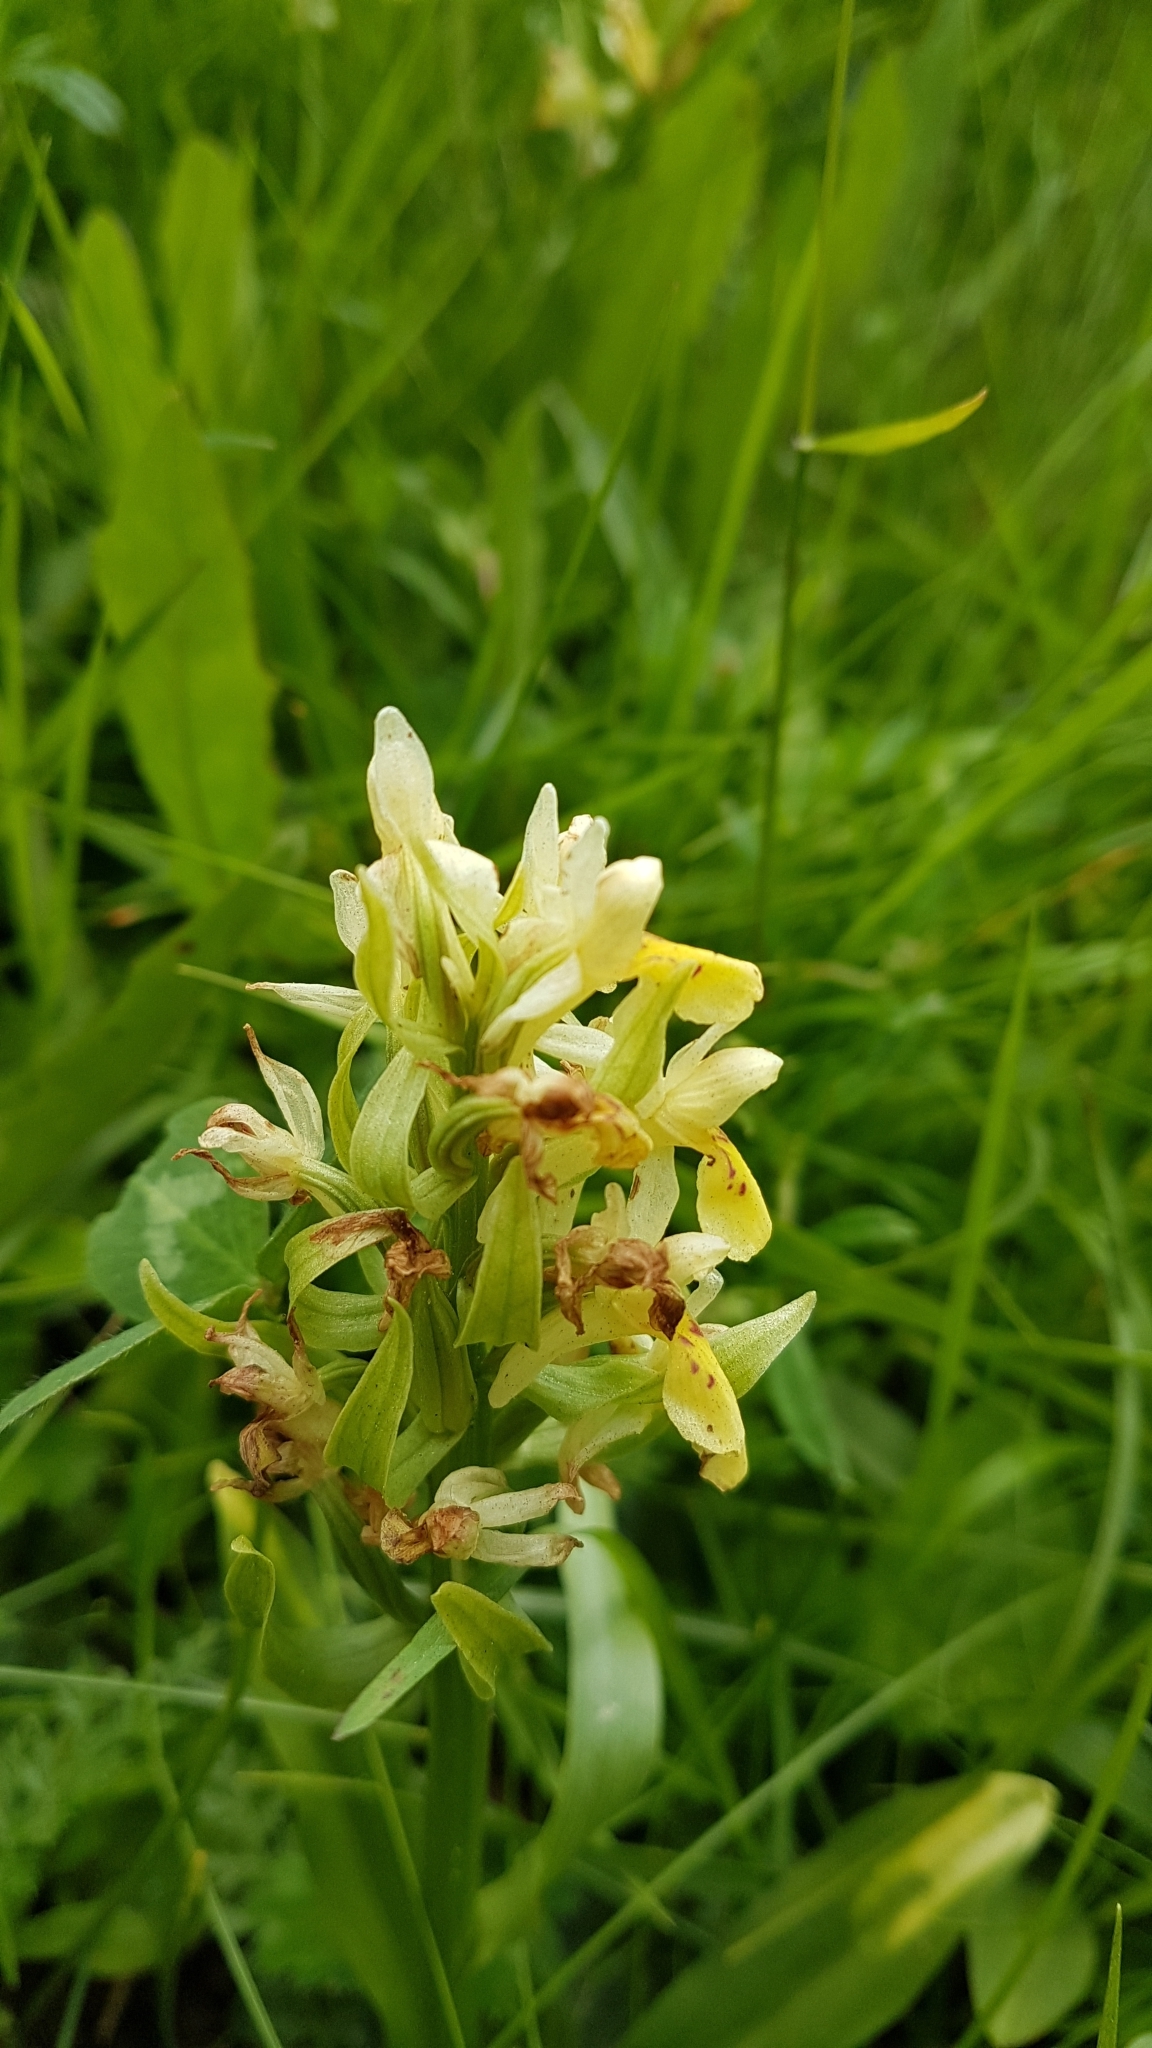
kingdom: Plantae
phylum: Tracheophyta
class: Liliopsida
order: Asparagales
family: Orchidaceae
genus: Dactylorhiza
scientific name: Dactylorhiza sambucina
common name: Elder-flowered orchid
